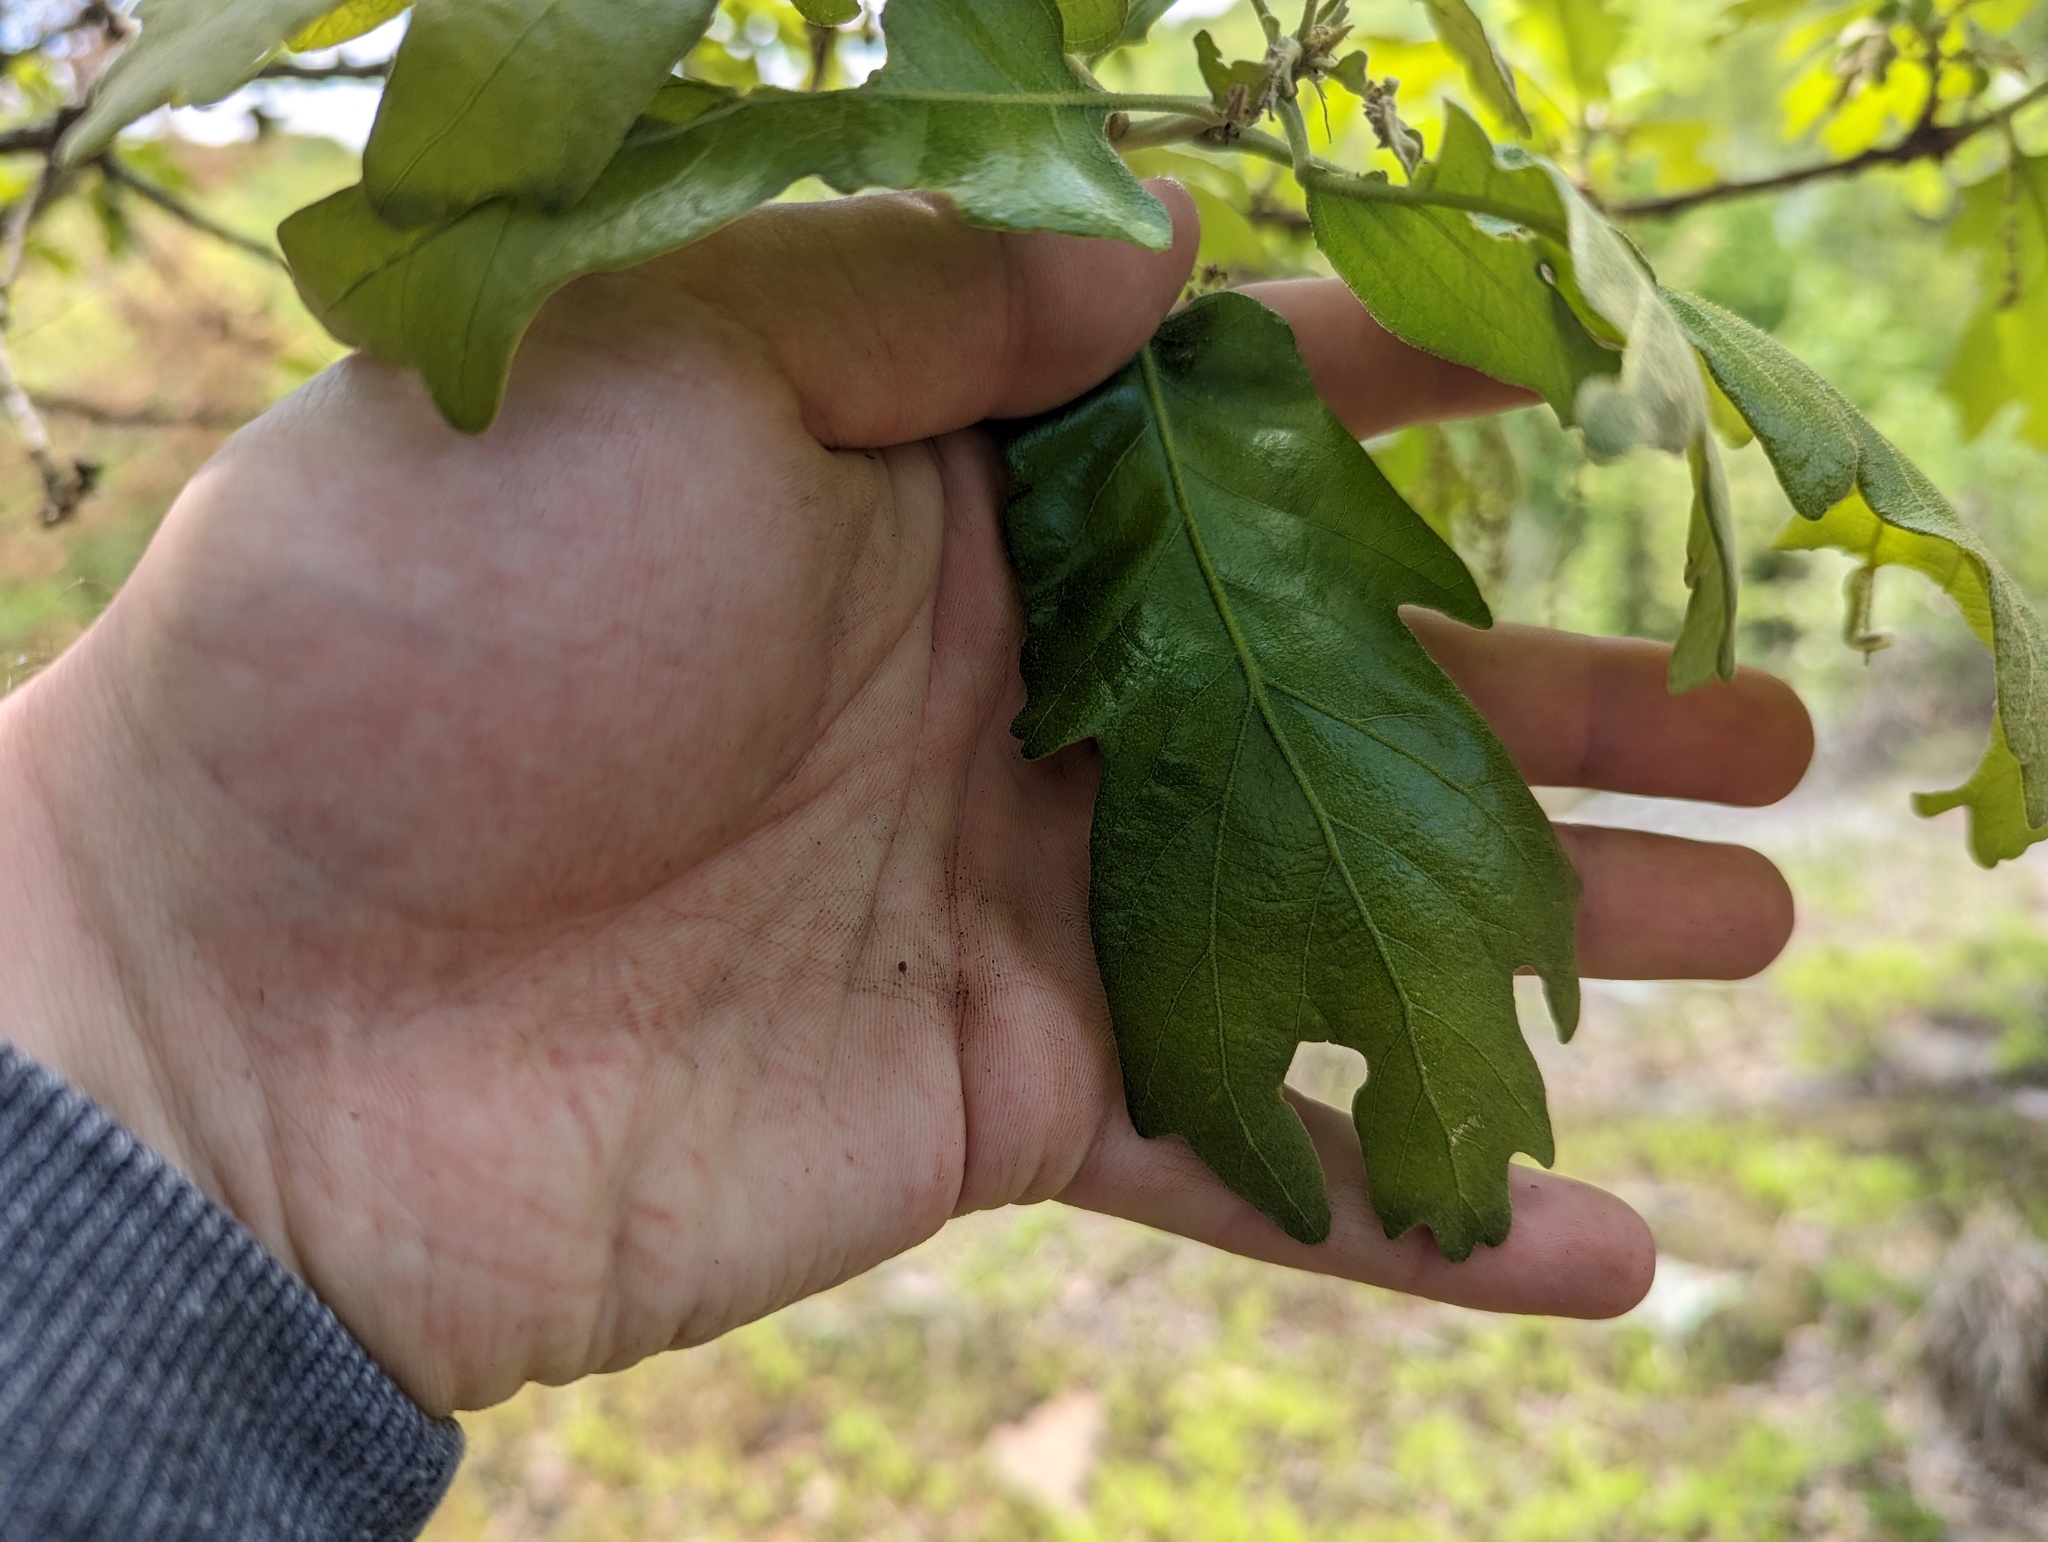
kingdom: Plantae
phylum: Tracheophyta
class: Magnoliopsida
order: Fagales
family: Fagaceae
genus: Quercus
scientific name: Quercus stellata
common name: Post oak
